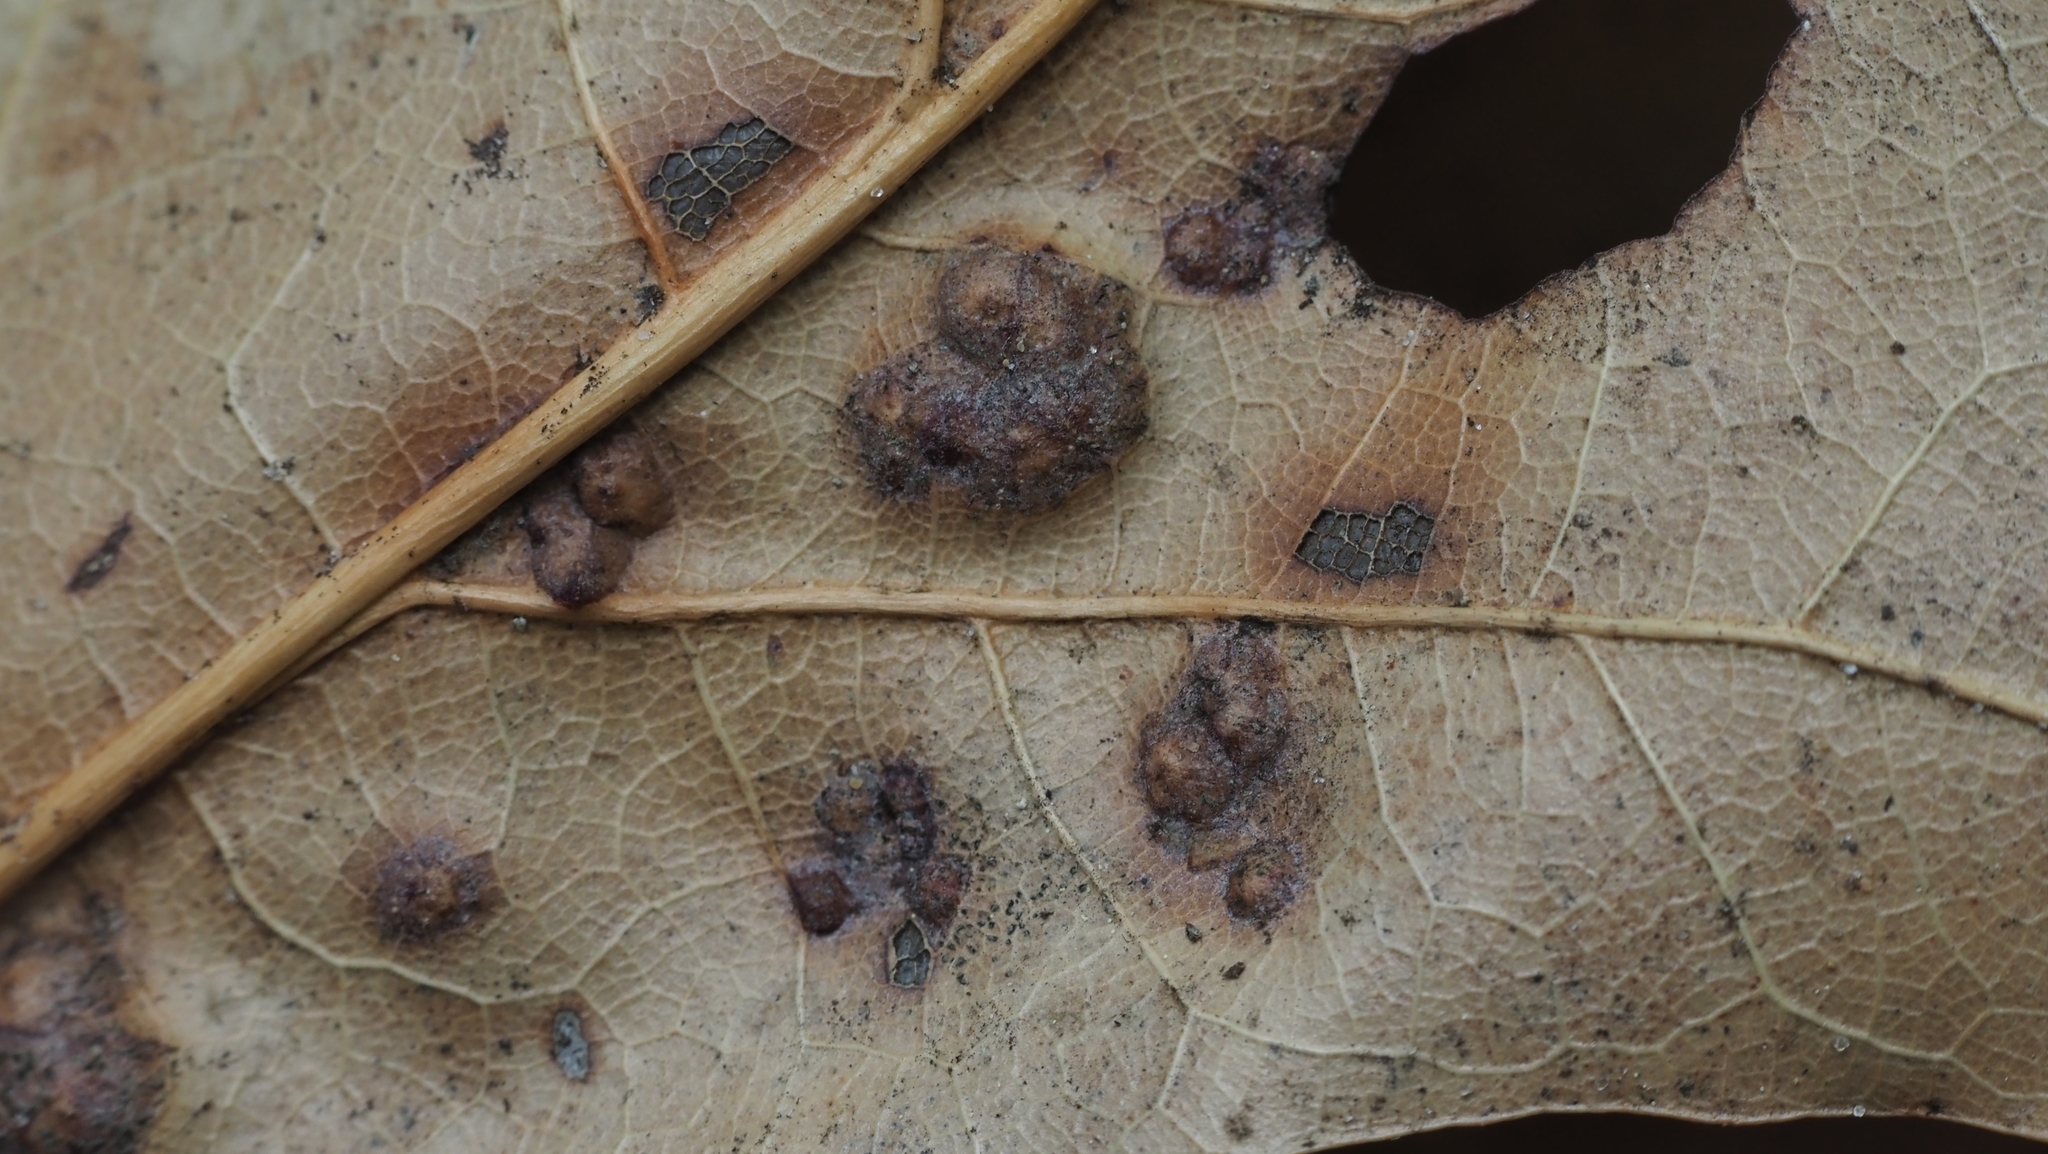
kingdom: Animalia
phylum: Arthropoda
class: Insecta
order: Diptera
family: Cecidomyiidae
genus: Polystepha
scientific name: Polystepha pilulae
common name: Oak leaf gall midge
